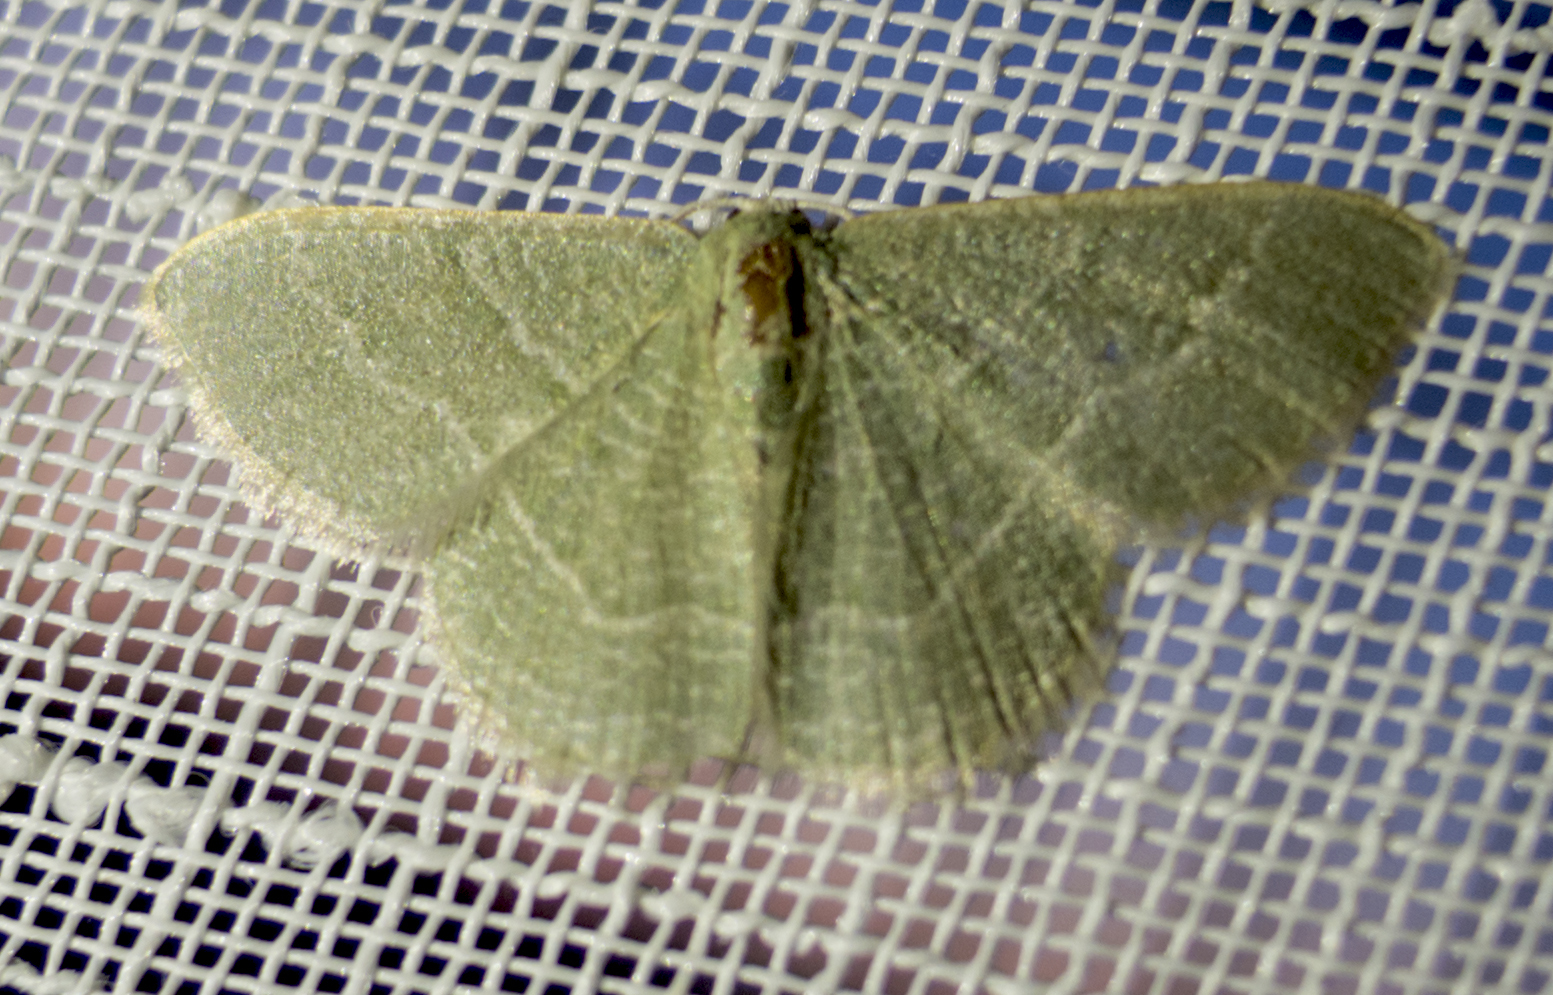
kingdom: Animalia
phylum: Arthropoda
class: Insecta
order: Lepidoptera
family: Geometridae
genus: Chlorissa
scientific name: Chlorissa etruscaria
